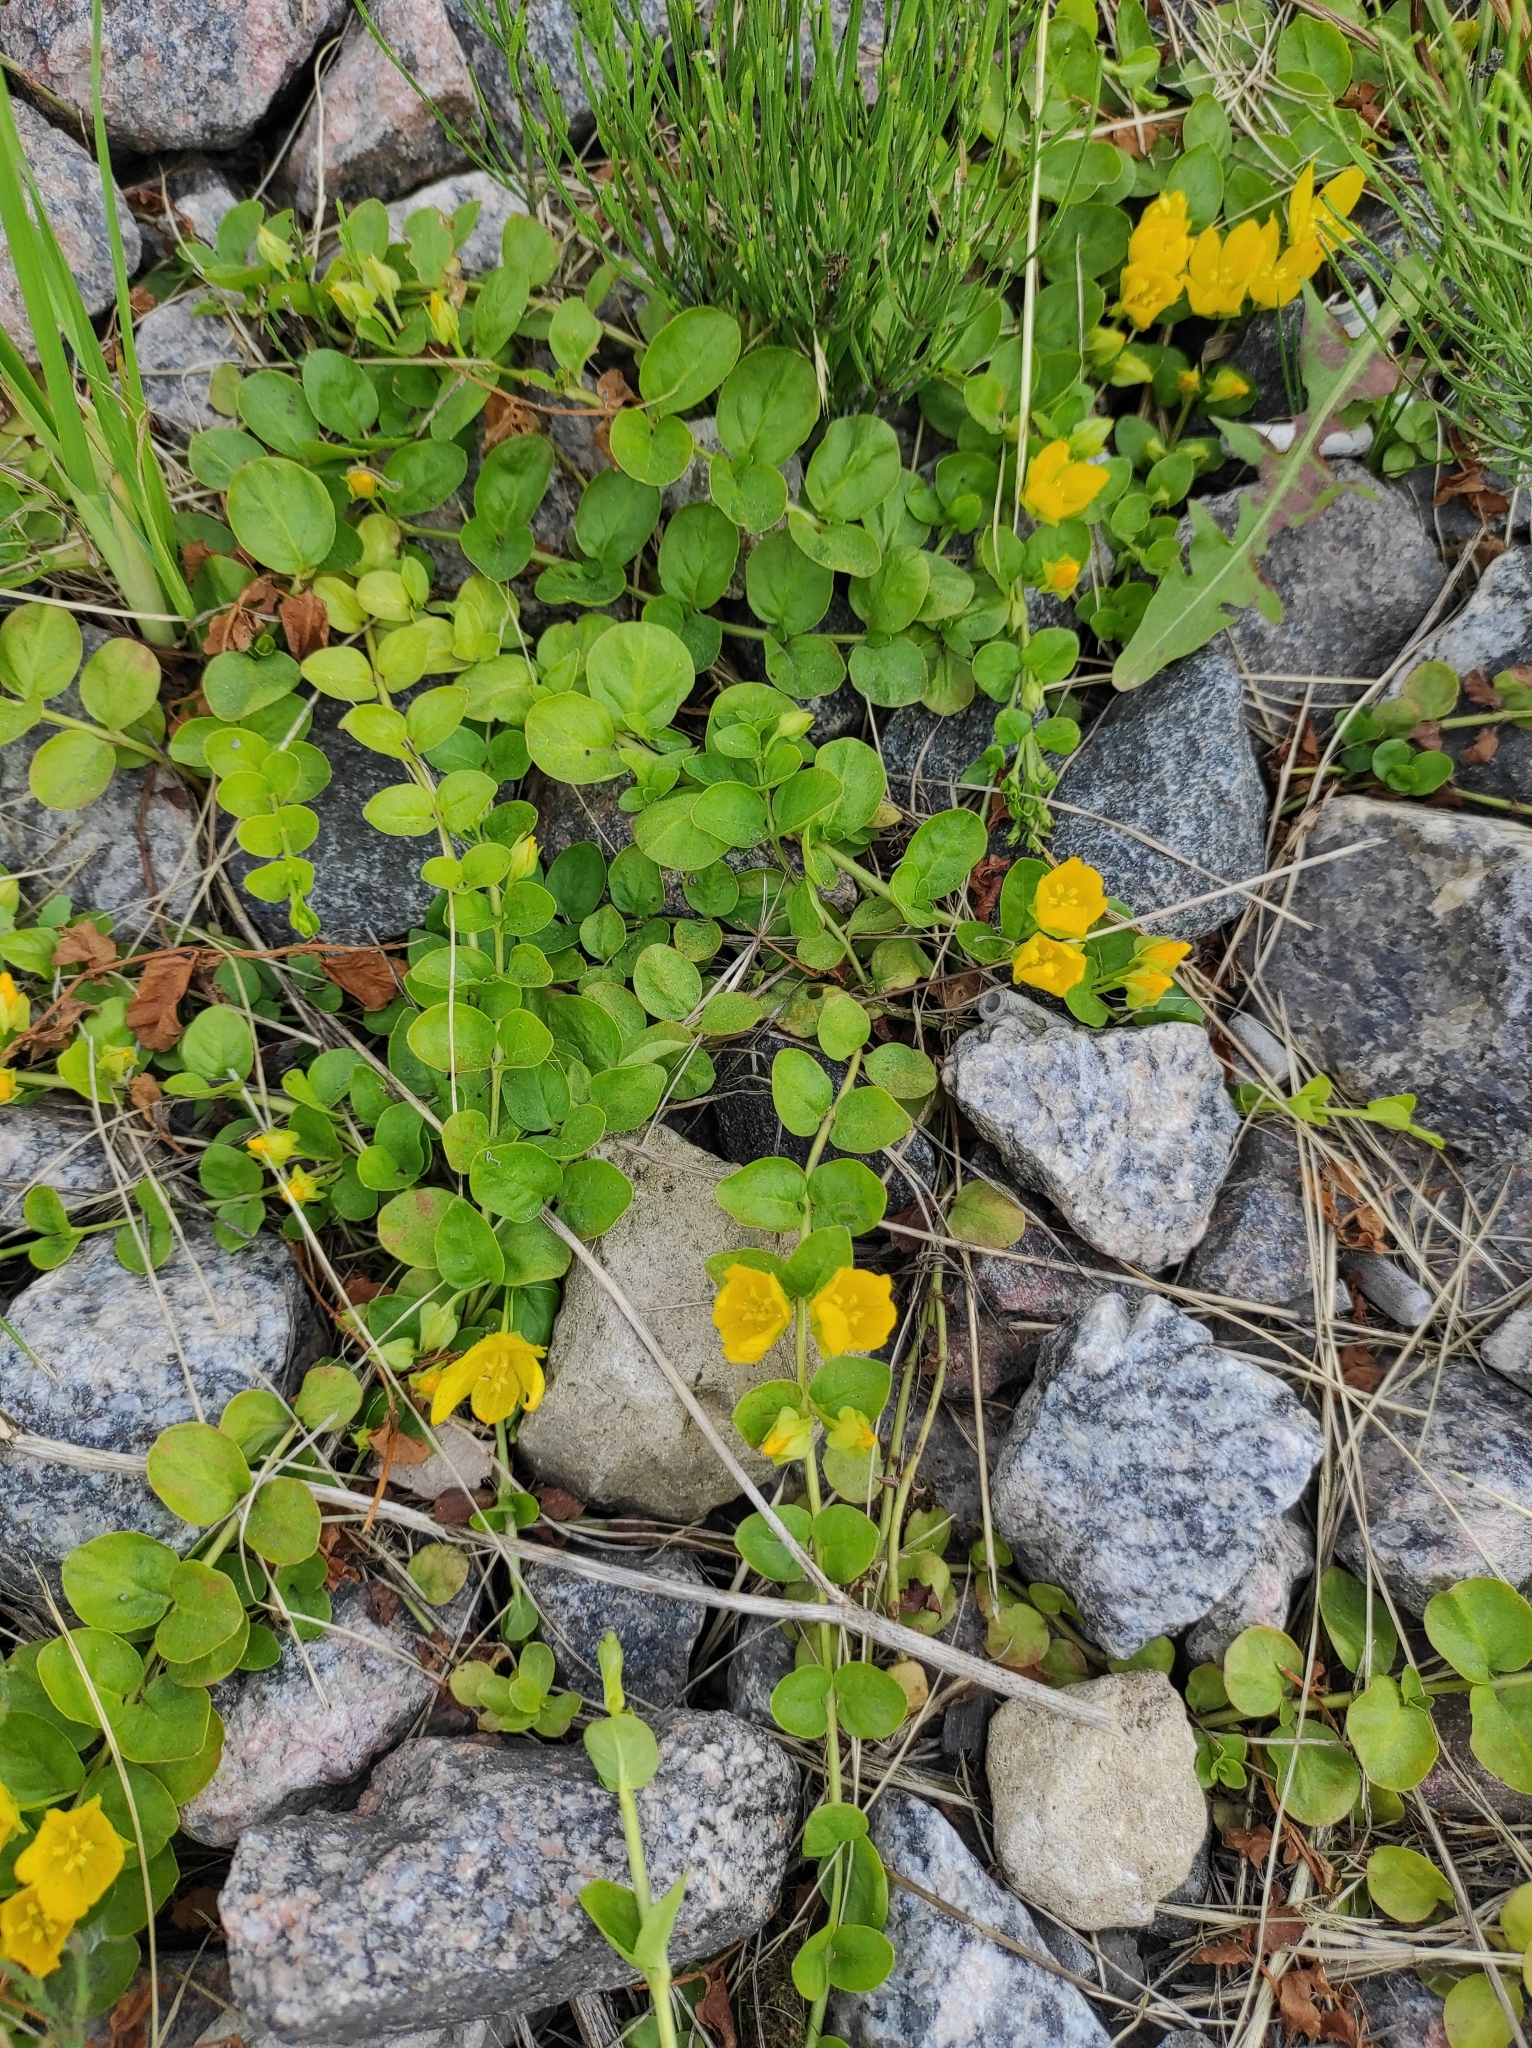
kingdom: Plantae
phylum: Tracheophyta
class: Magnoliopsida
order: Ericales
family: Primulaceae
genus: Lysimachia
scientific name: Lysimachia nummularia
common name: Moneywort
